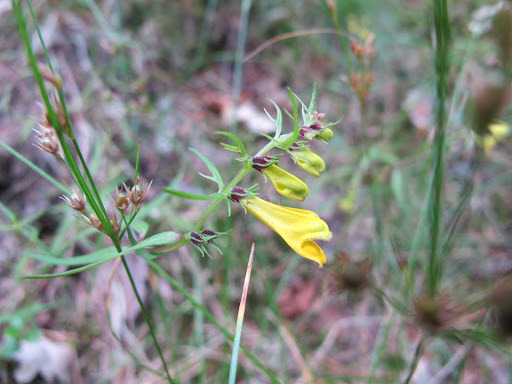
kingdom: Plantae
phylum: Tracheophyta
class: Magnoliopsida
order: Lamiales
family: Orobanchaceae
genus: Melampyrum
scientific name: Melampyrum pratense
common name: Common cow-wheat
